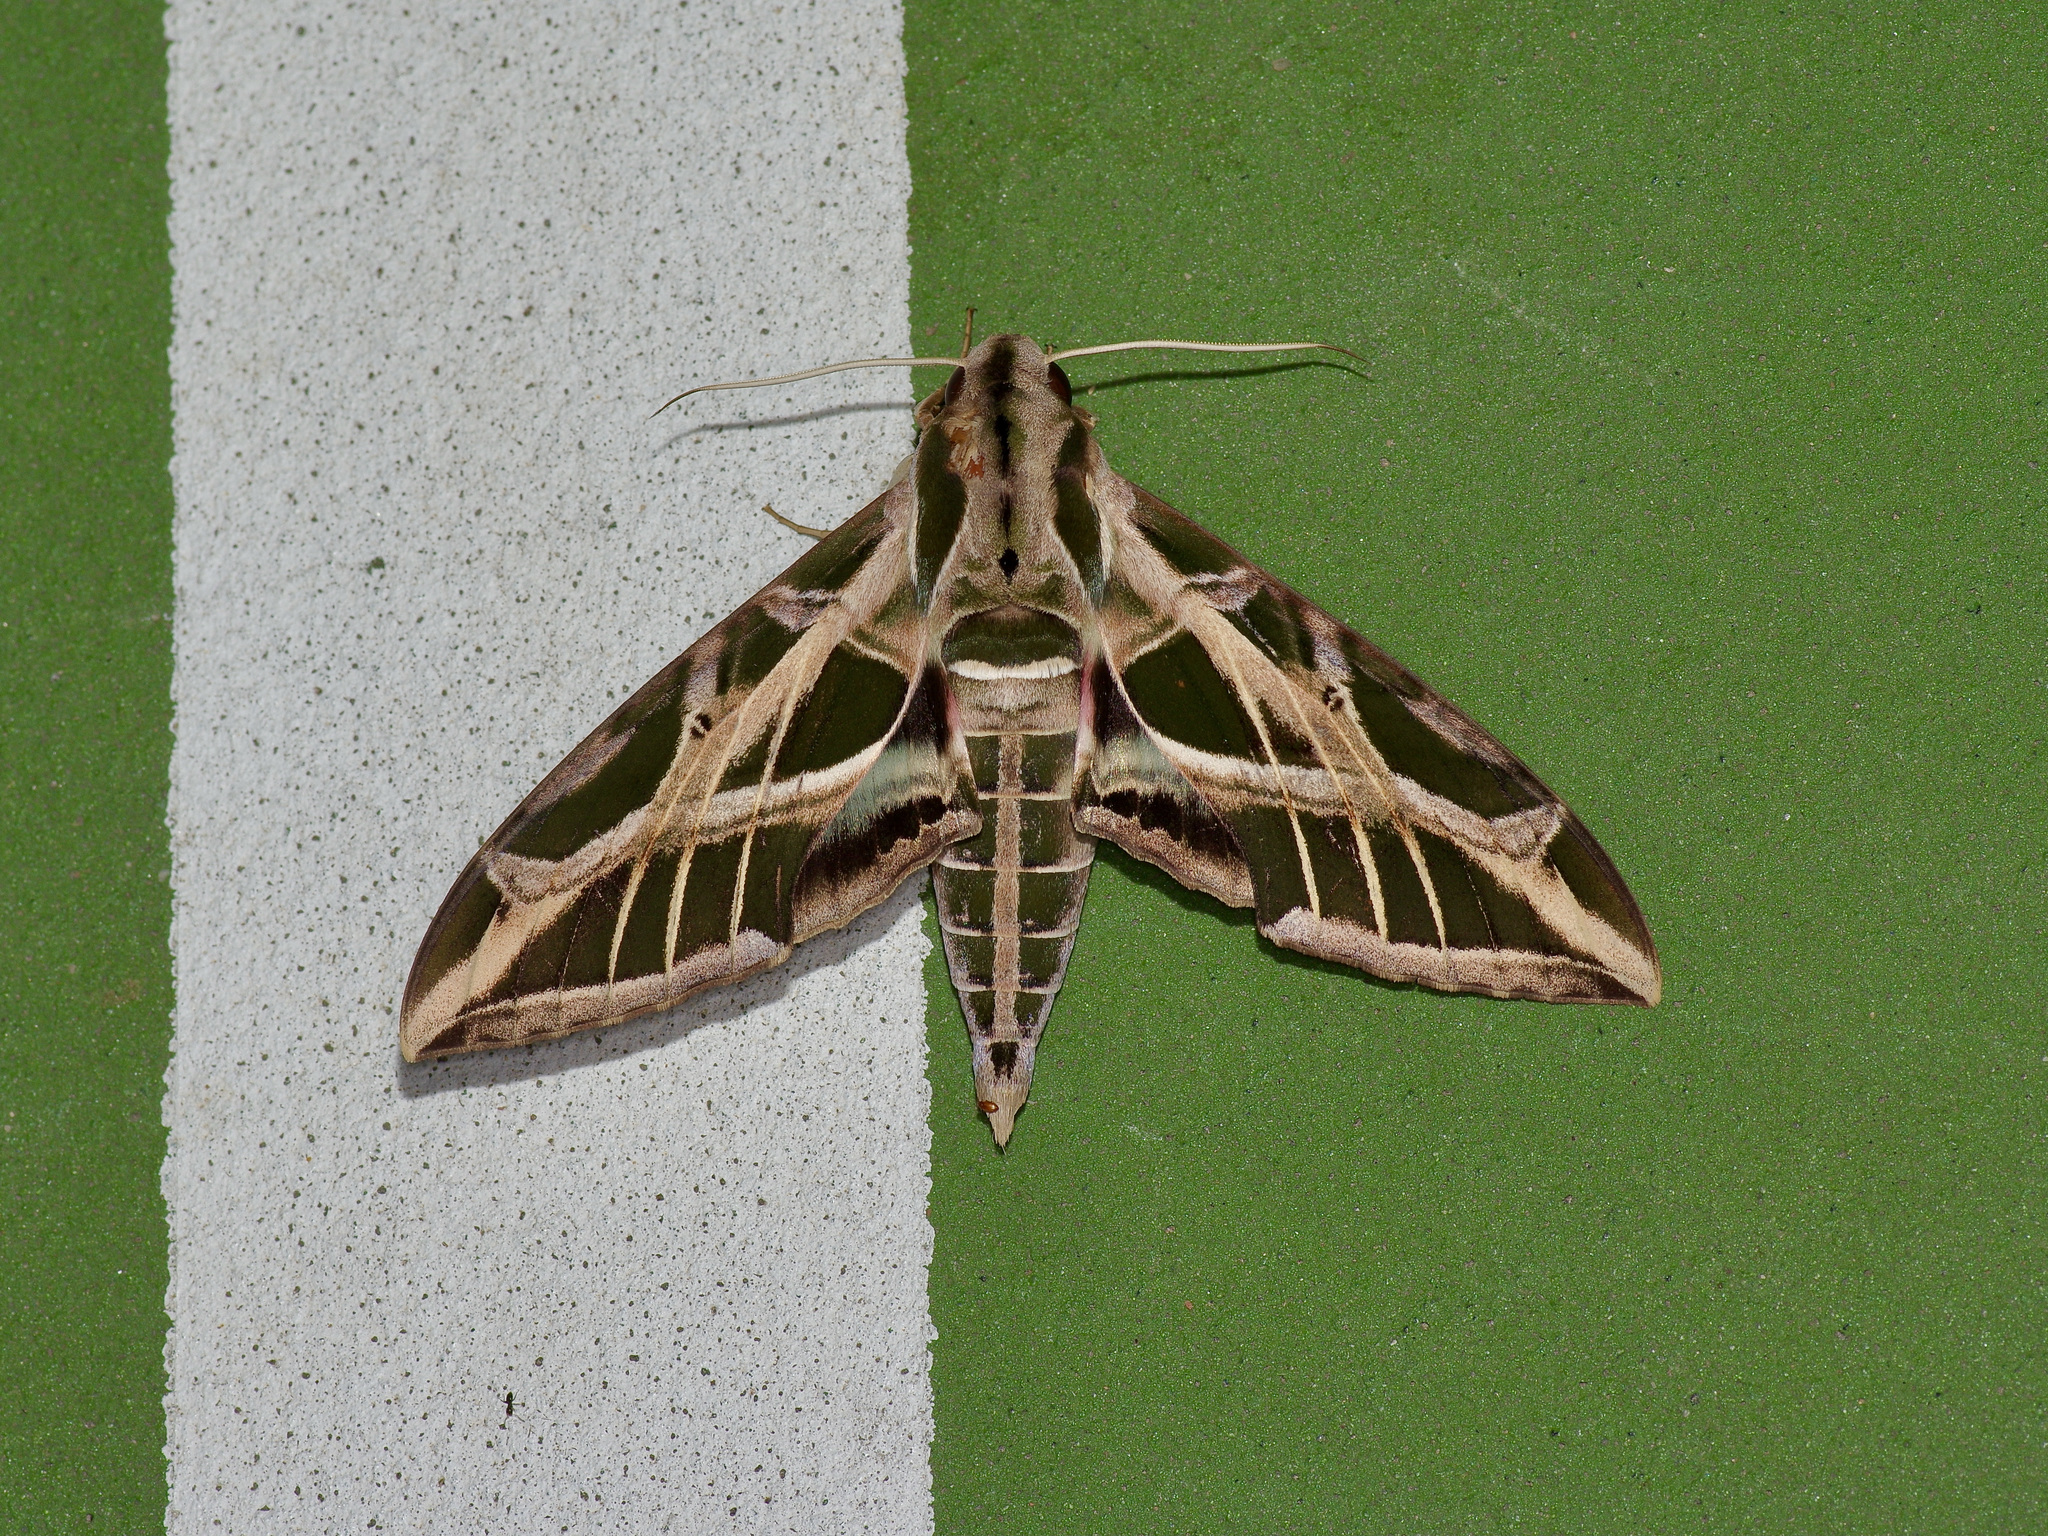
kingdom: Animalia
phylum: Arthropoda
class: Insecta
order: Lepidoptera
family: Sphingidae
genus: Eumorpha
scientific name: Eumorpha vitis
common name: Vine sphinx
